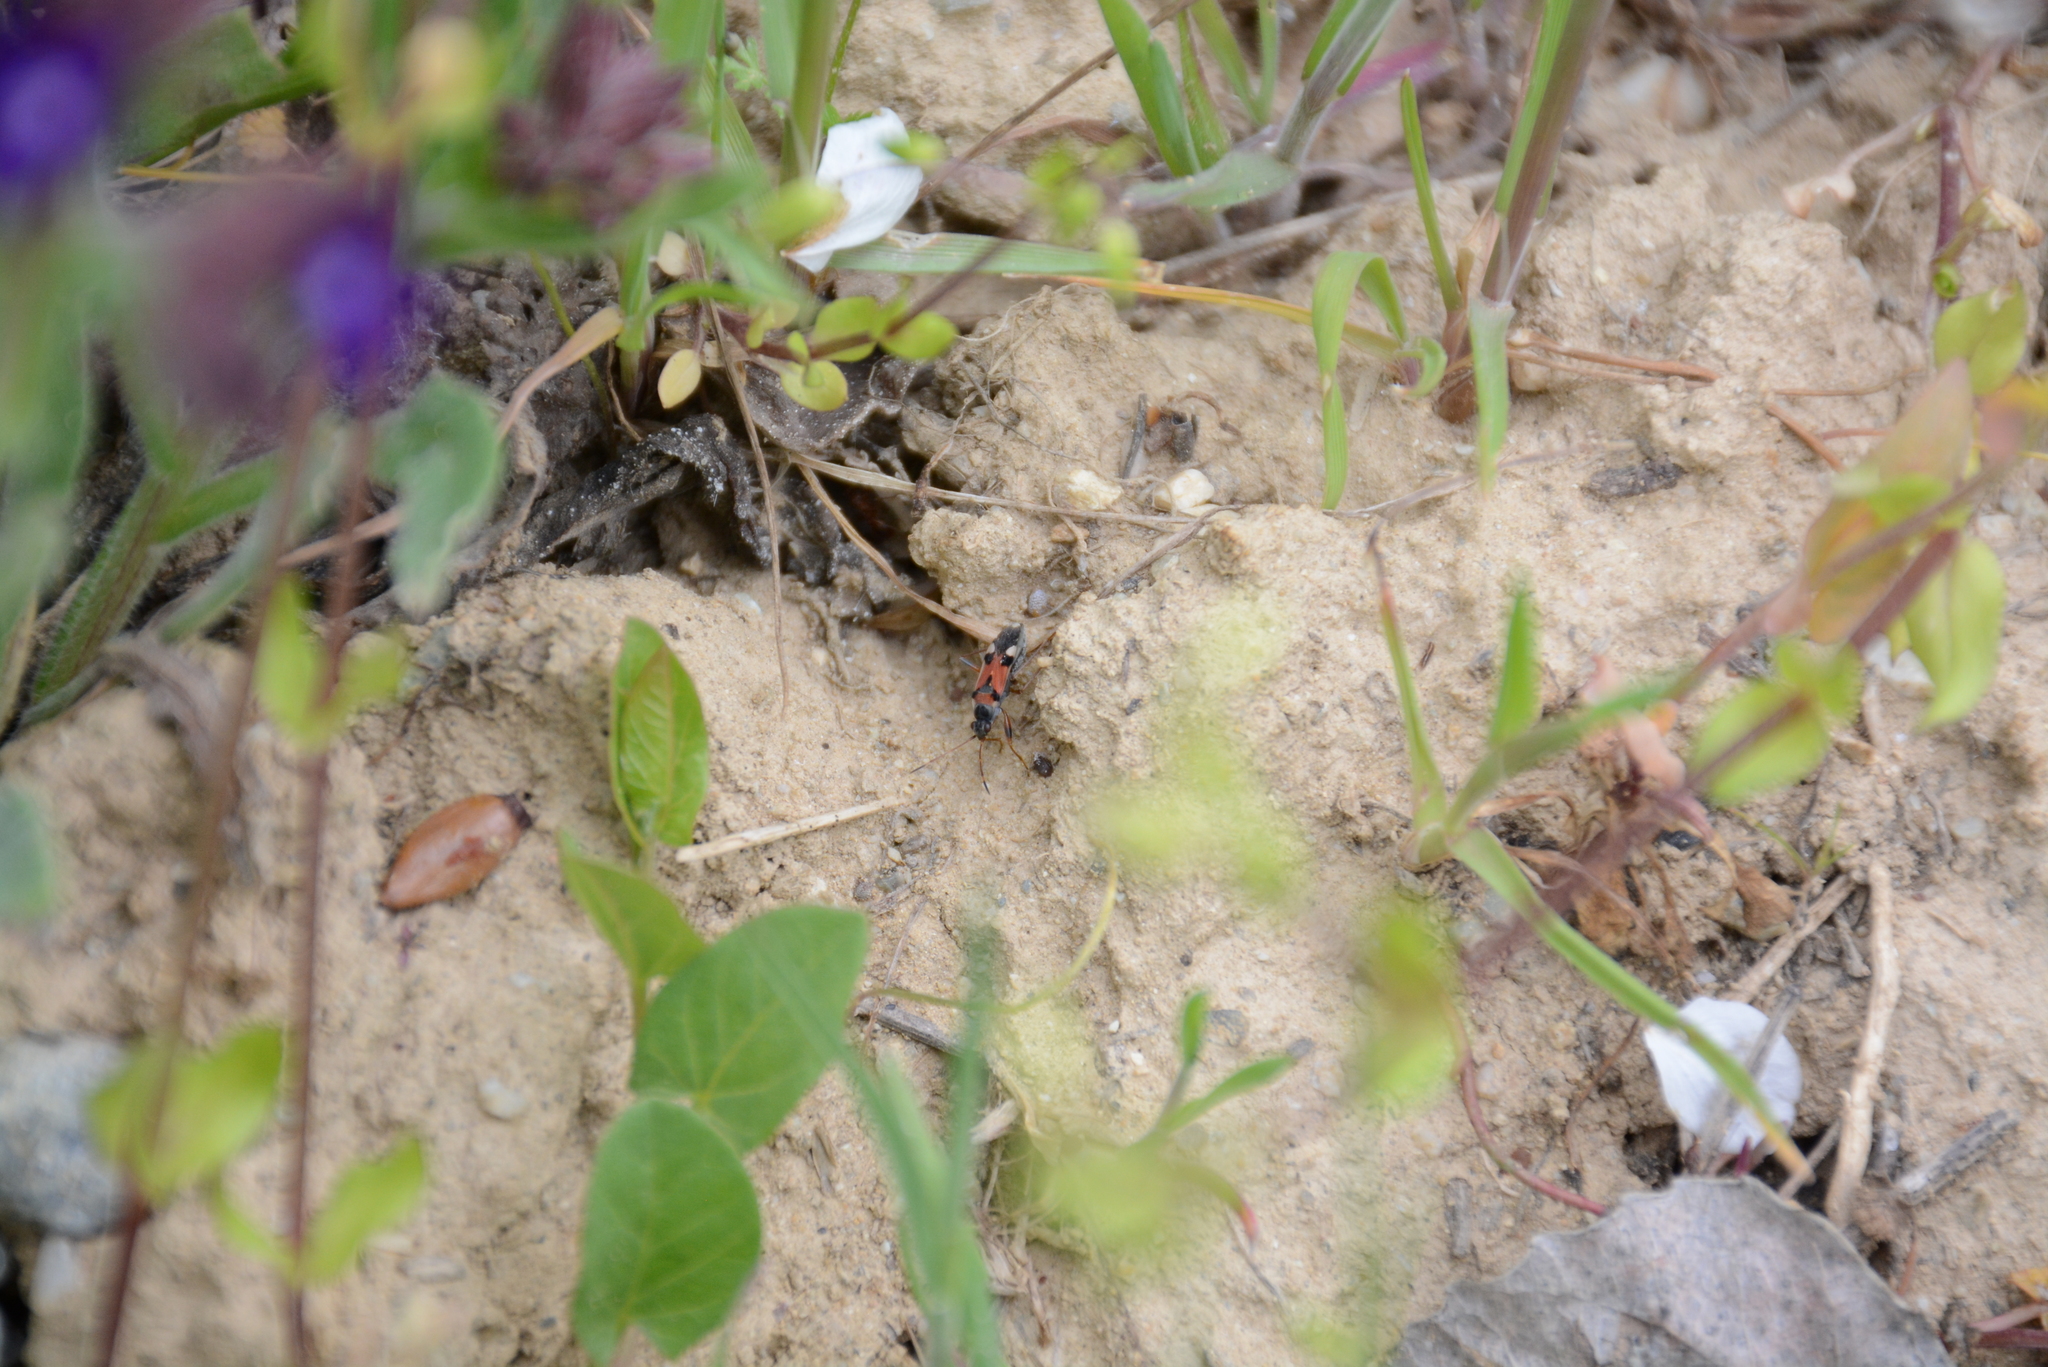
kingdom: Animalia
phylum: Arthropoda
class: Insecta
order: Hemiptera
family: Rhyparochromidae
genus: Beosus
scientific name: Beosus quadripunctatus
